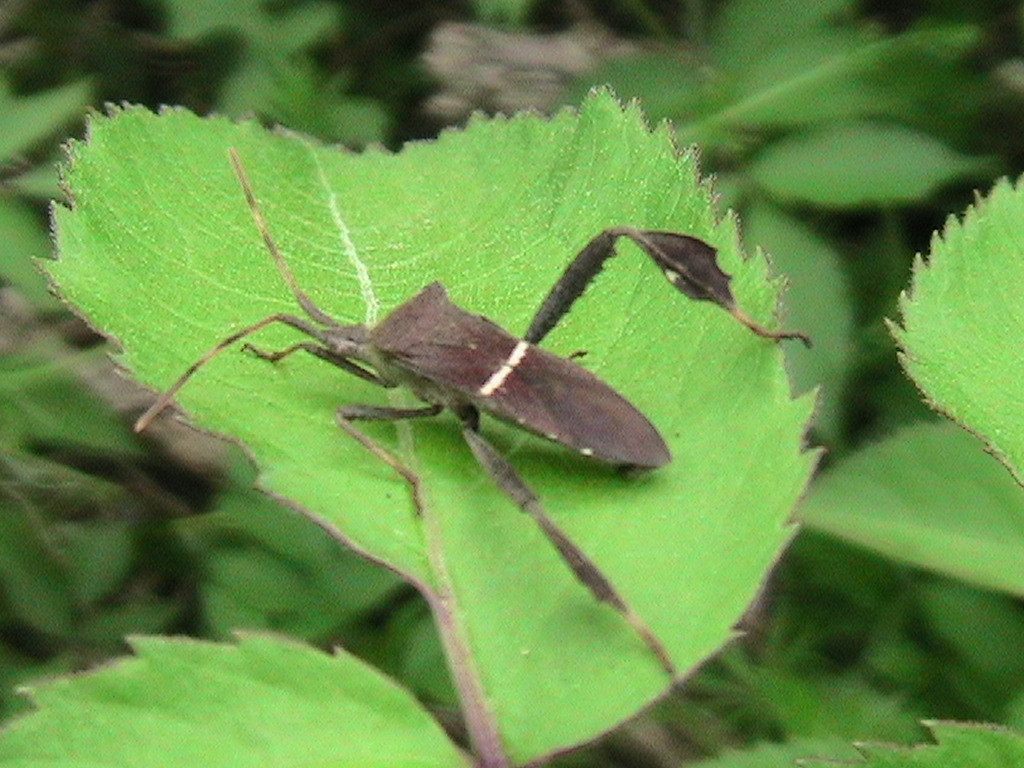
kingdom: Animalia
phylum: Arthropoda
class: Insecta
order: Hemiptera
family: Coreidae
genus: Leptoglossus
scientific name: Leptoglossus phyllopus
